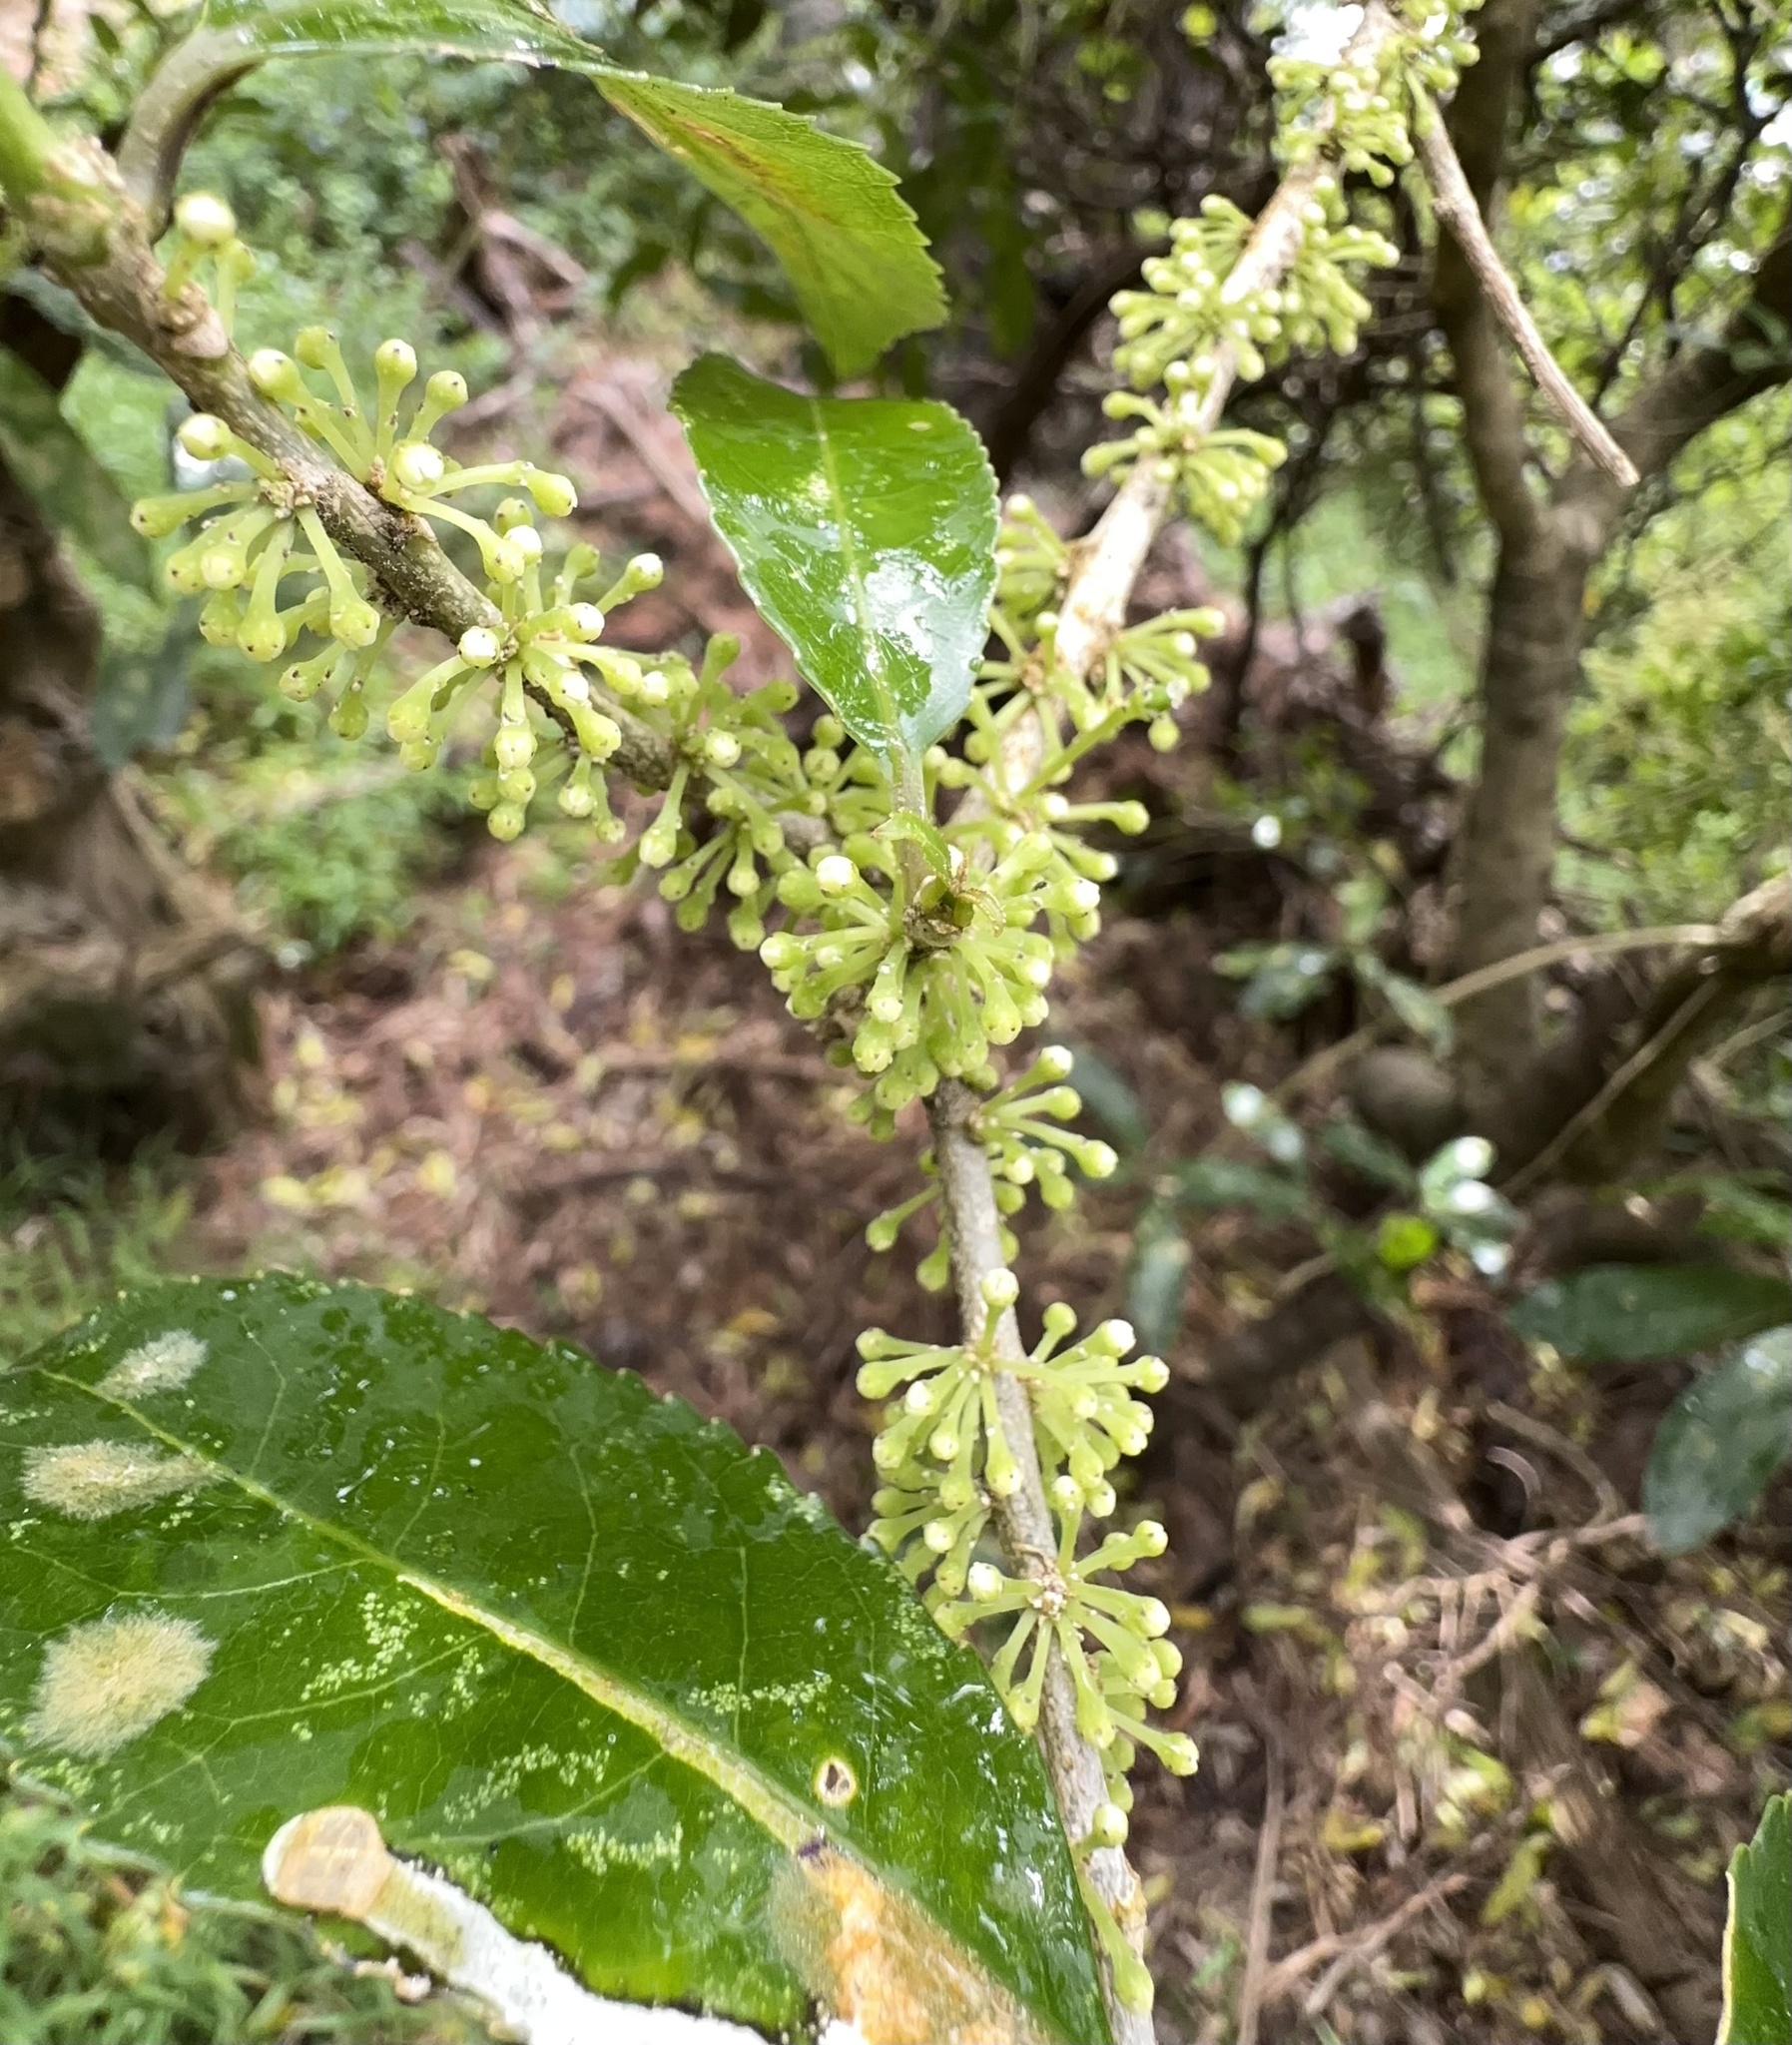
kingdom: Plantae
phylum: Tracheophyta
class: Magnoliopsida
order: Malpighiales
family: Violaceae
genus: Melicytus
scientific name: Melicytus ramiflorus
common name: Mahoe
